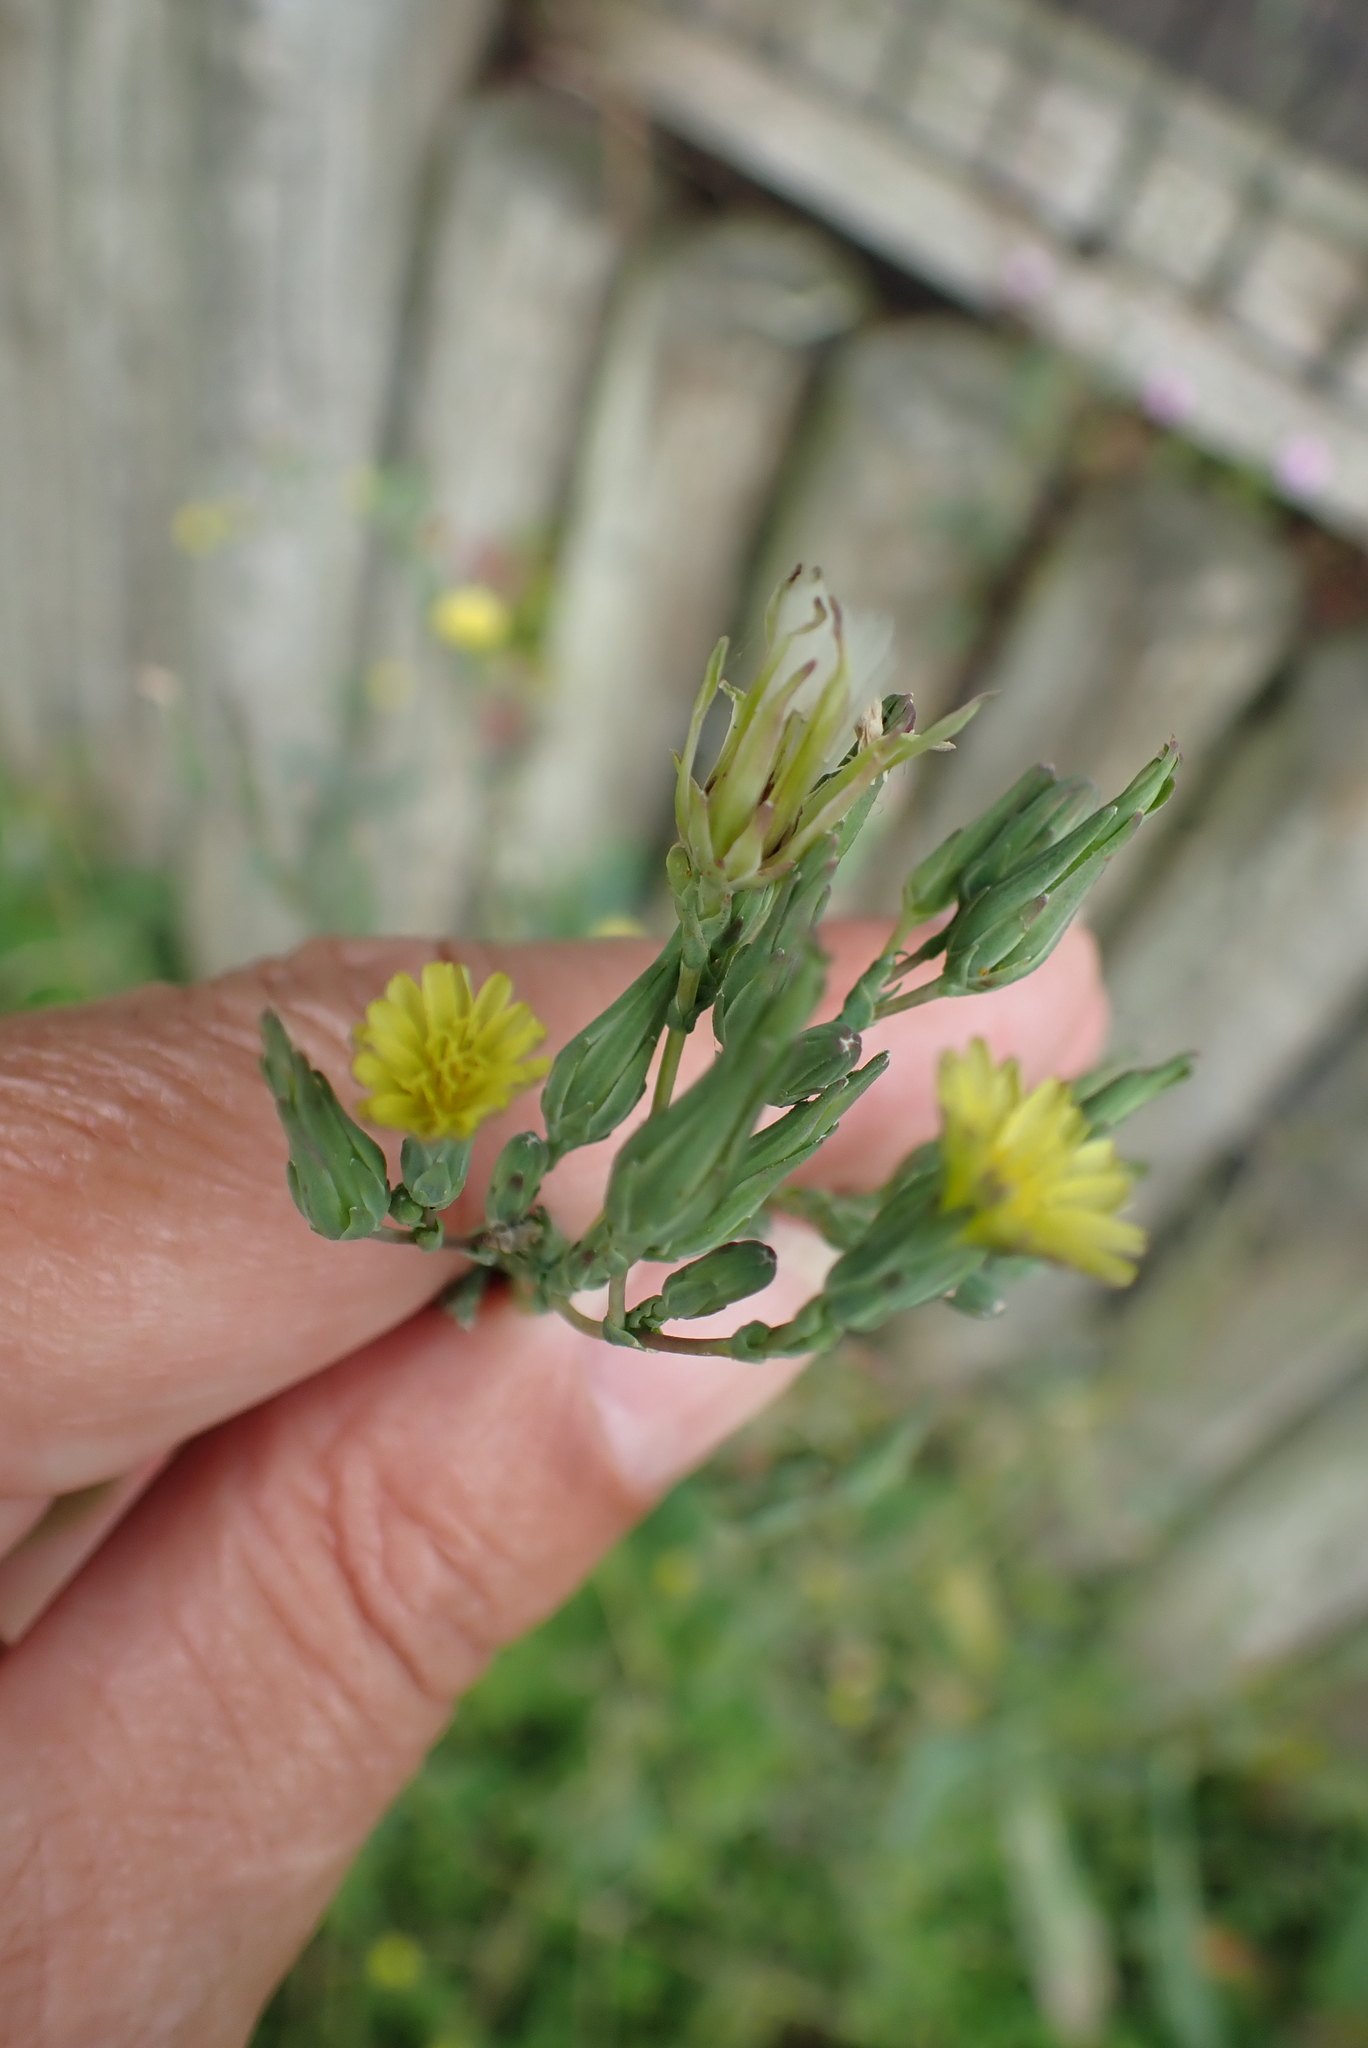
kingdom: Plantae
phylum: Tracheophyta
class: Magnoliopsida
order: Asterales
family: Asteraceae
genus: Lactuca
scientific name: Lactuca serriola
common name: Prickly lettuce
